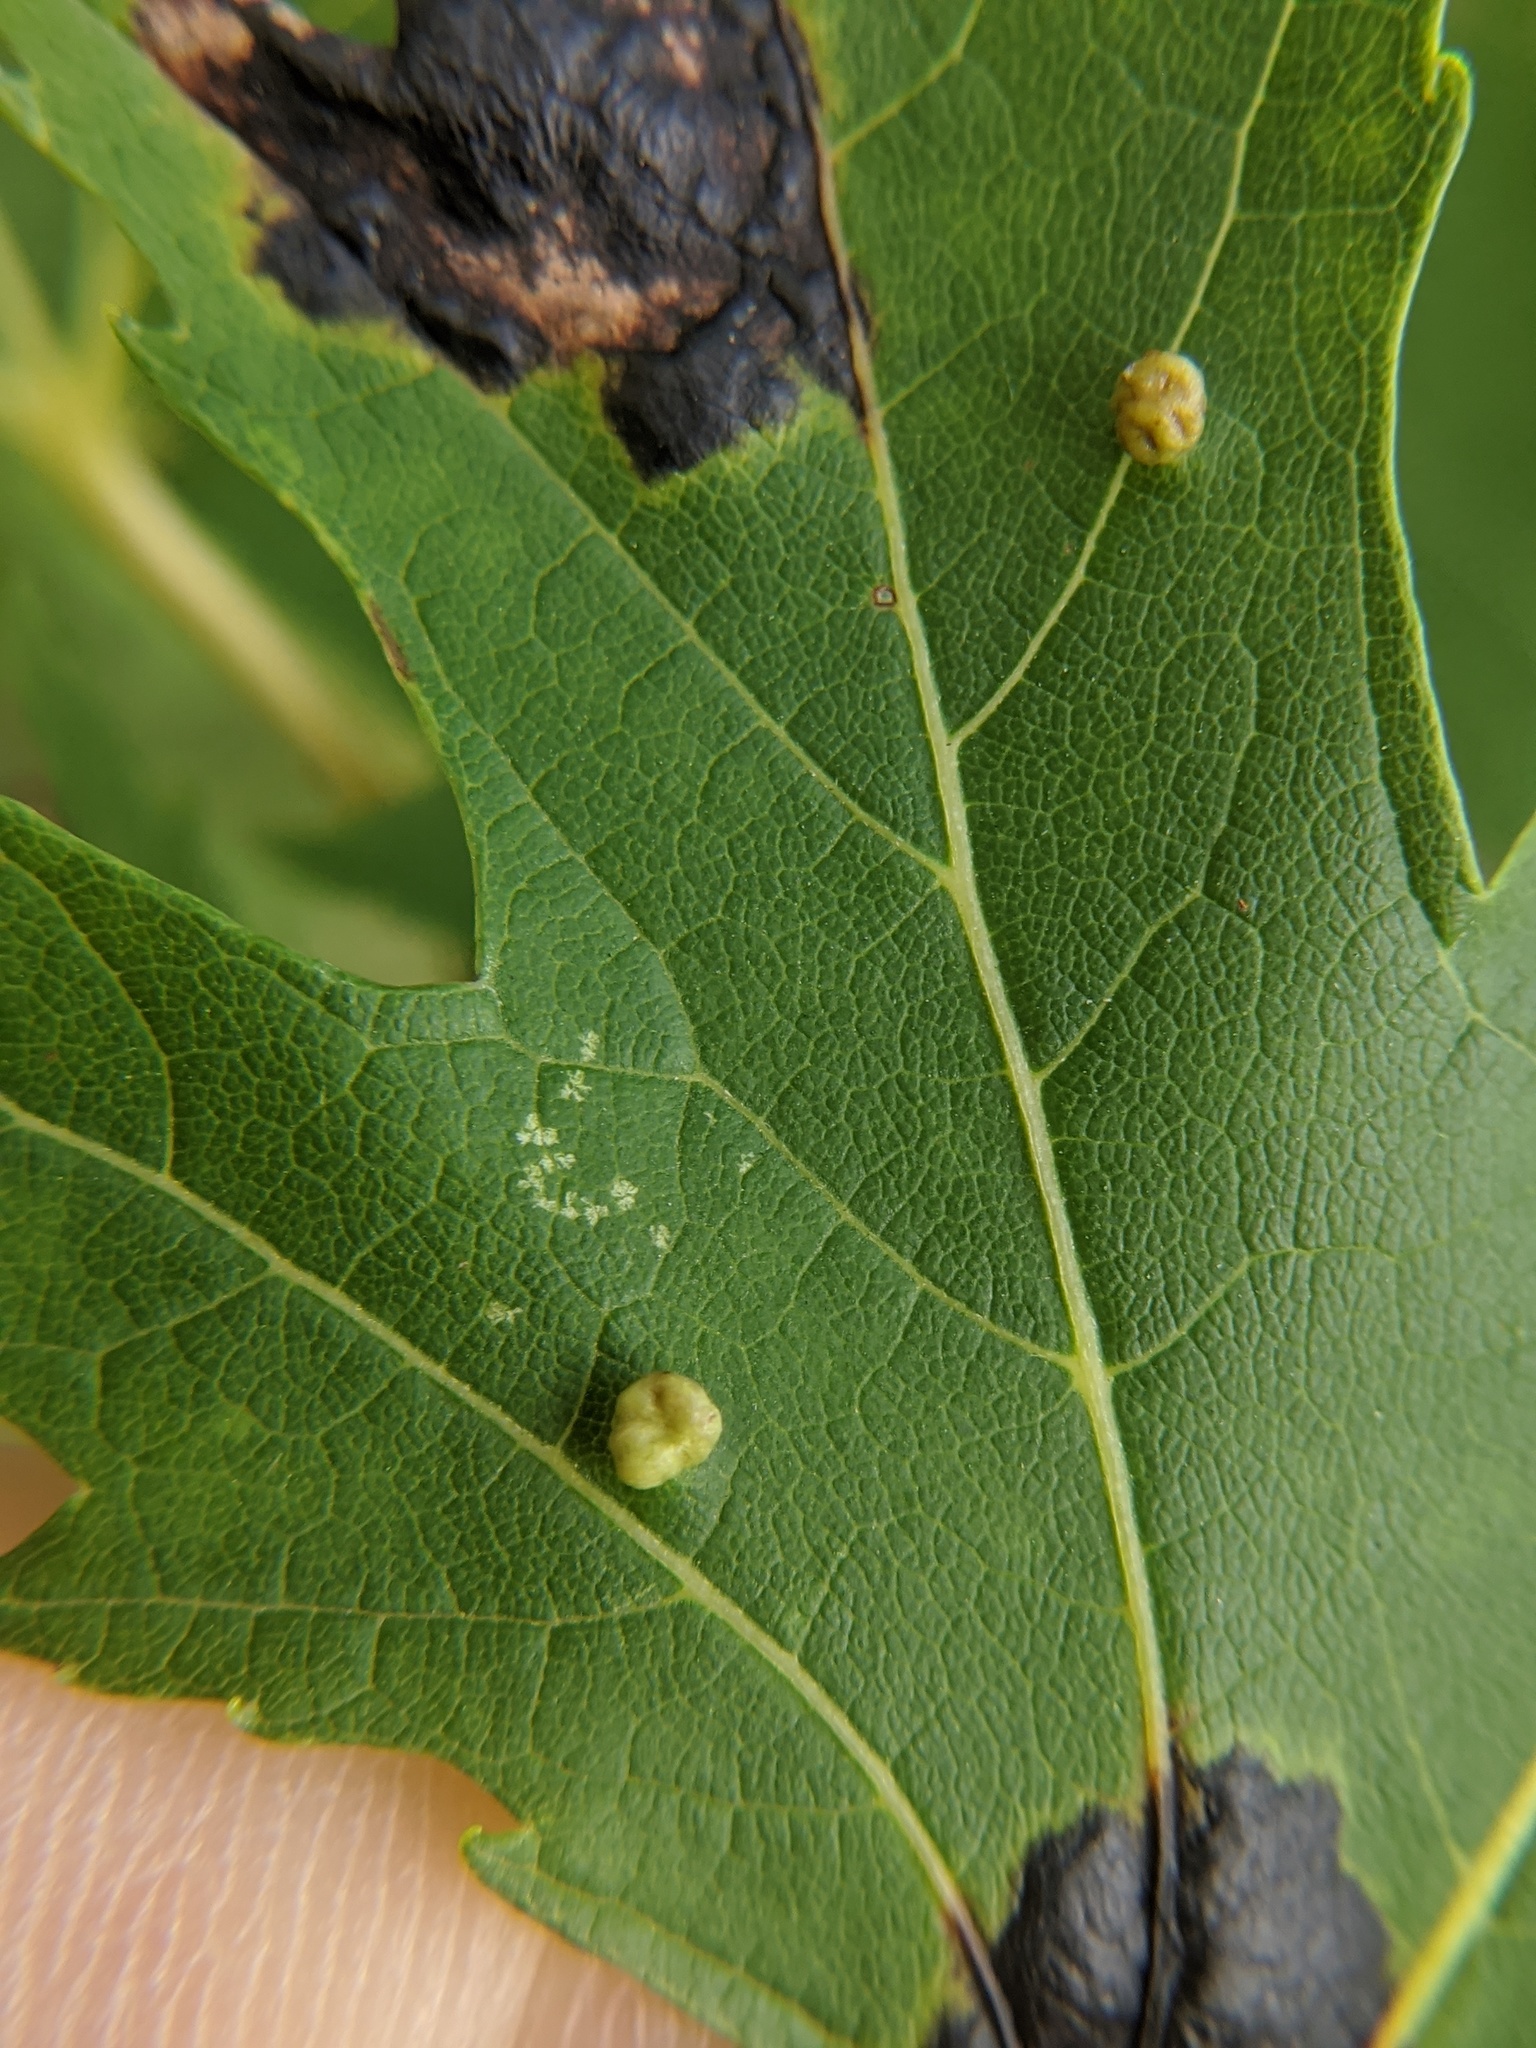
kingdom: Animalia
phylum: Arthropoda
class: Arachnida
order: Trombidiformes
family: Eriophyidae
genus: Vasates
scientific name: Vasates quadripedes
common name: Maple bladder gall mite
